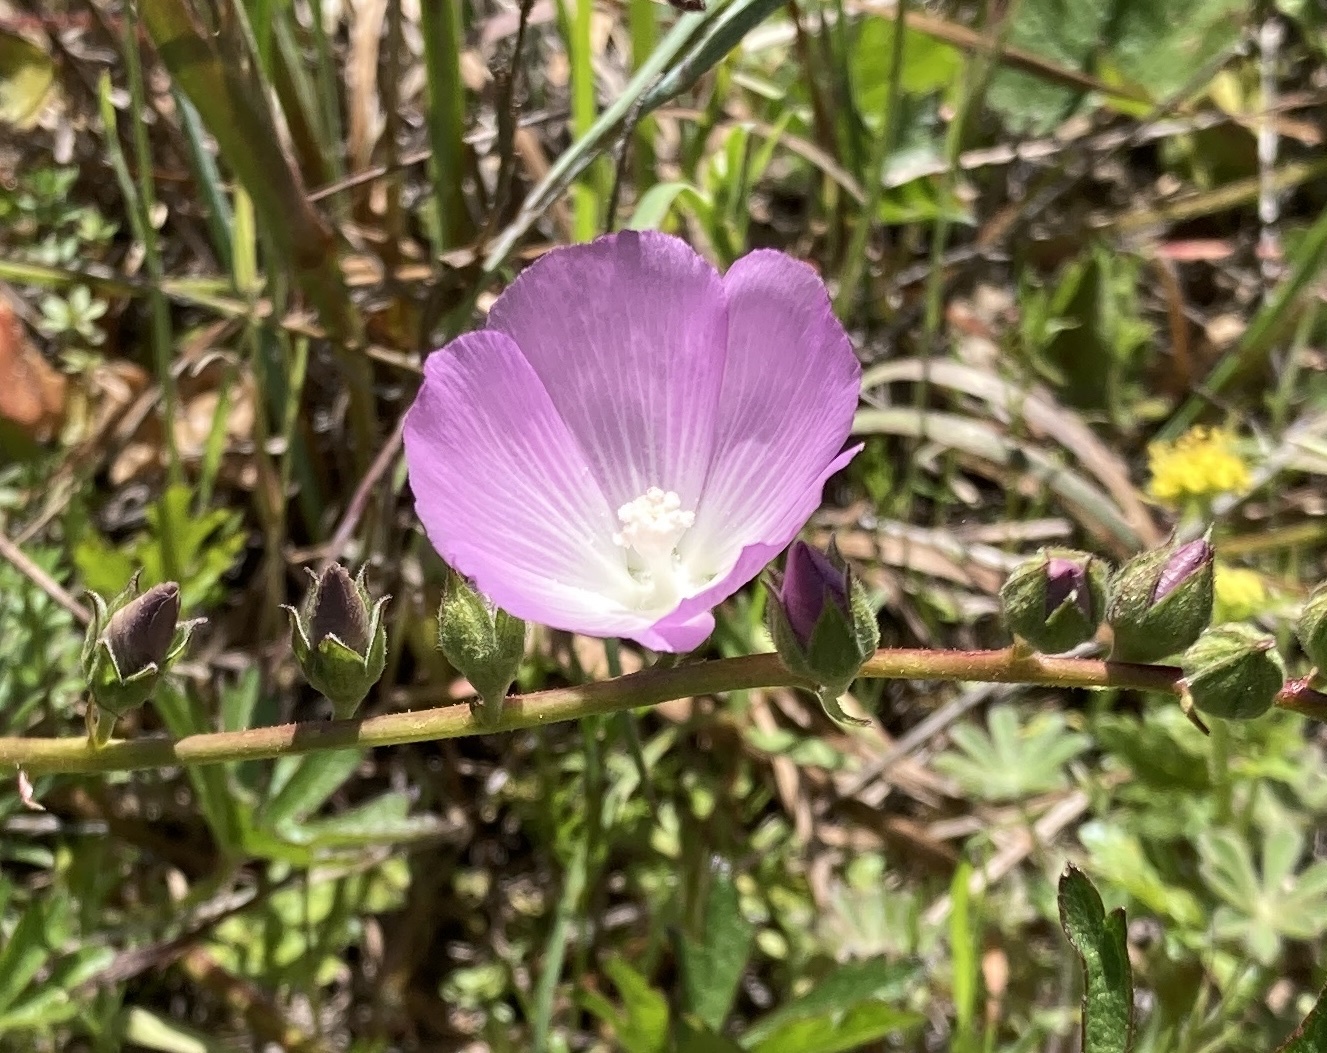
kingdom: Plantae
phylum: Tracheophyta
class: Magnoliopsida
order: Malvales
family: Malvaceae
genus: Sidalcea
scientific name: Sidalcea sparsifolia
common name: Southern checkerbloom
